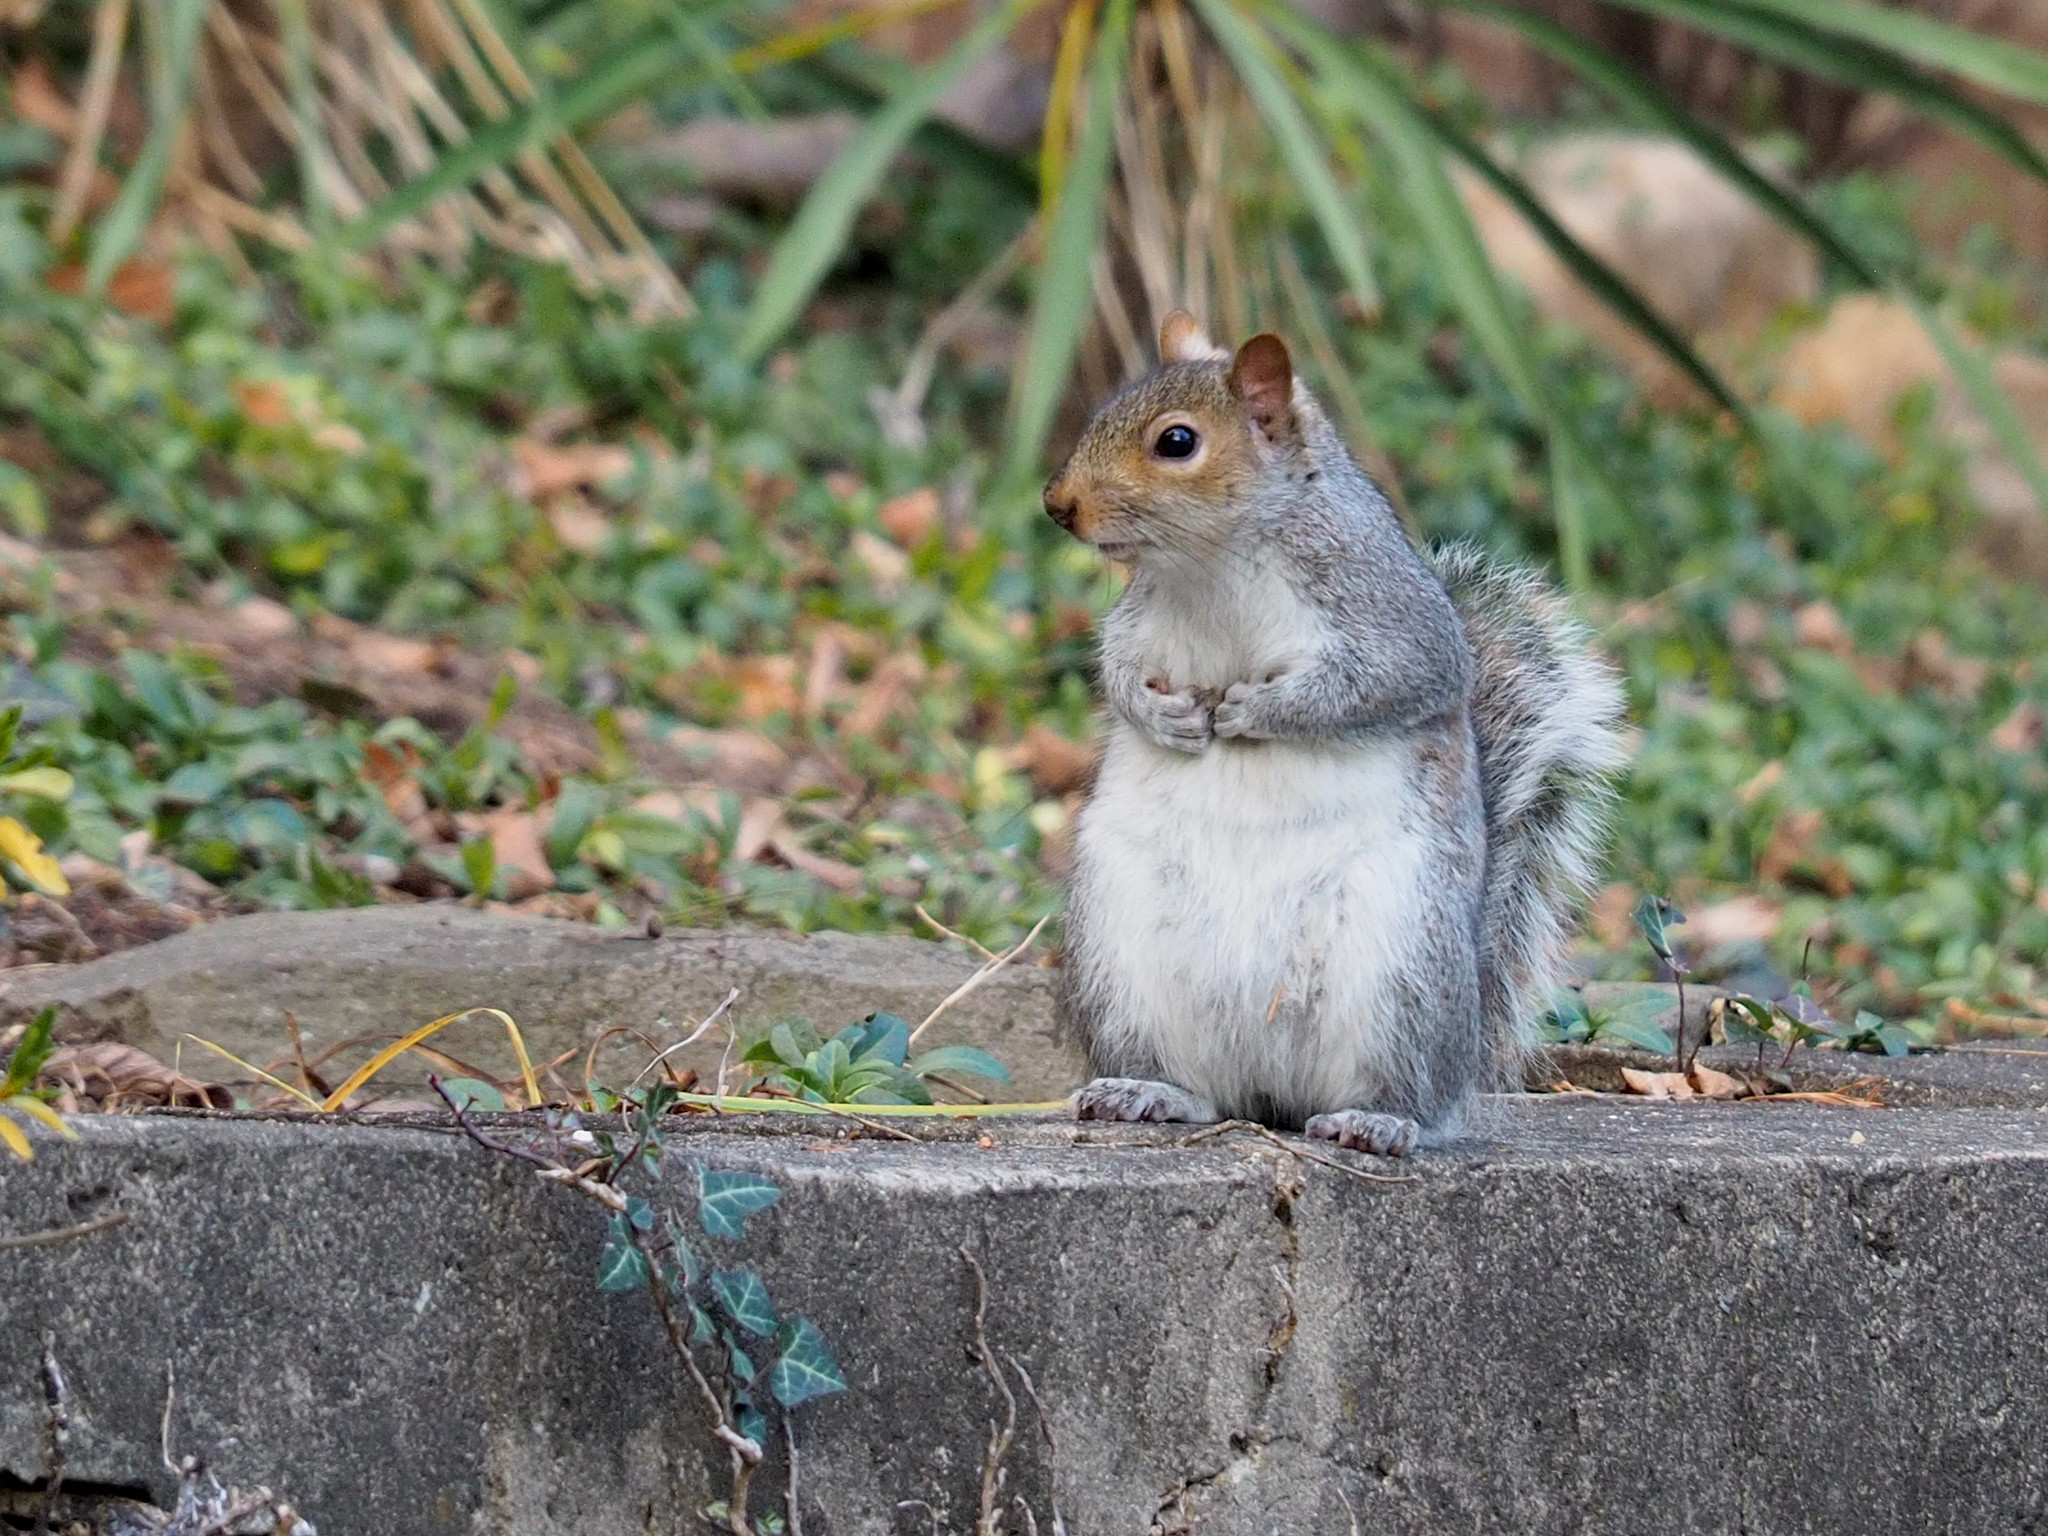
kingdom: Animalia
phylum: Chordata
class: Mammalia
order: Rodentia
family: Sciuridae
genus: Sciurus
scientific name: Sciurus carolinensis
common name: Eastern gray squirrel
